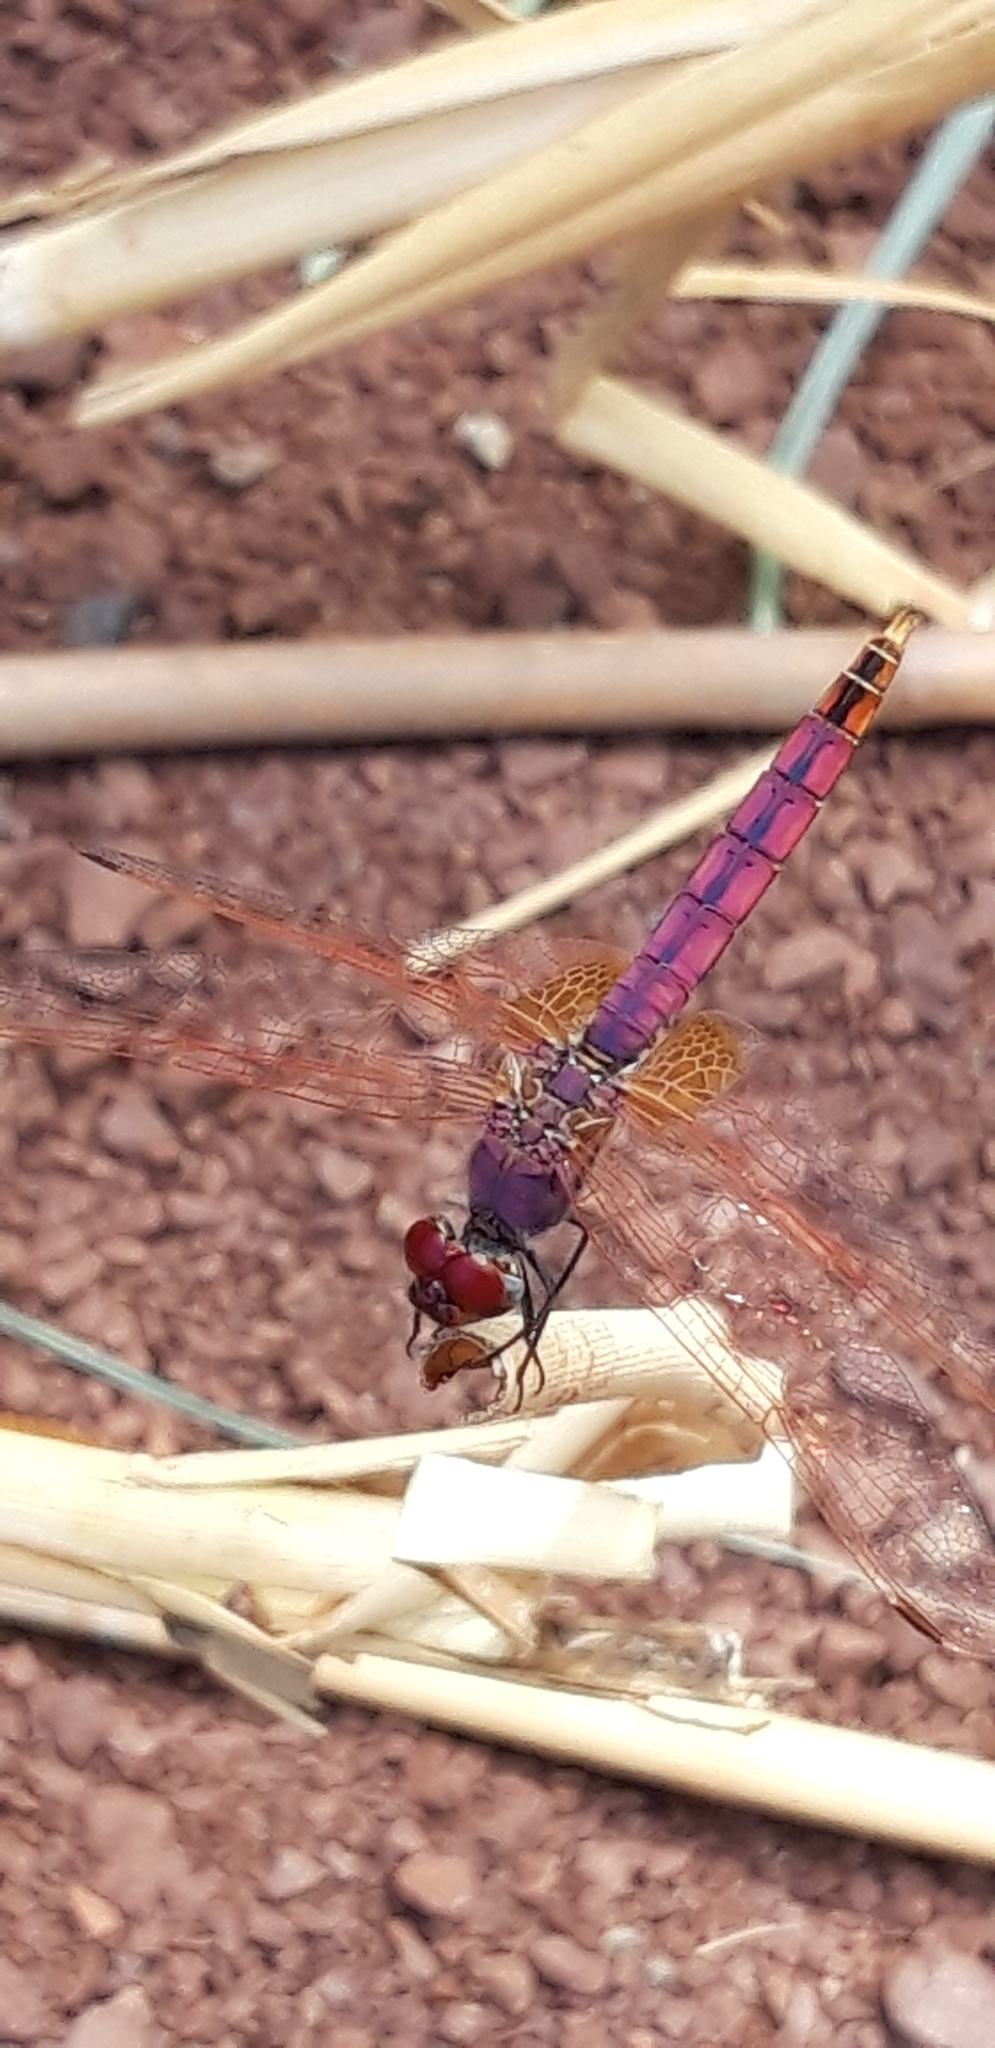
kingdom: Animalia
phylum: Arthropoda
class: Insecta
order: Odonata
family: Libellulidae
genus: Trithemis
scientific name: Trithemis annulata
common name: Violet dropwing
